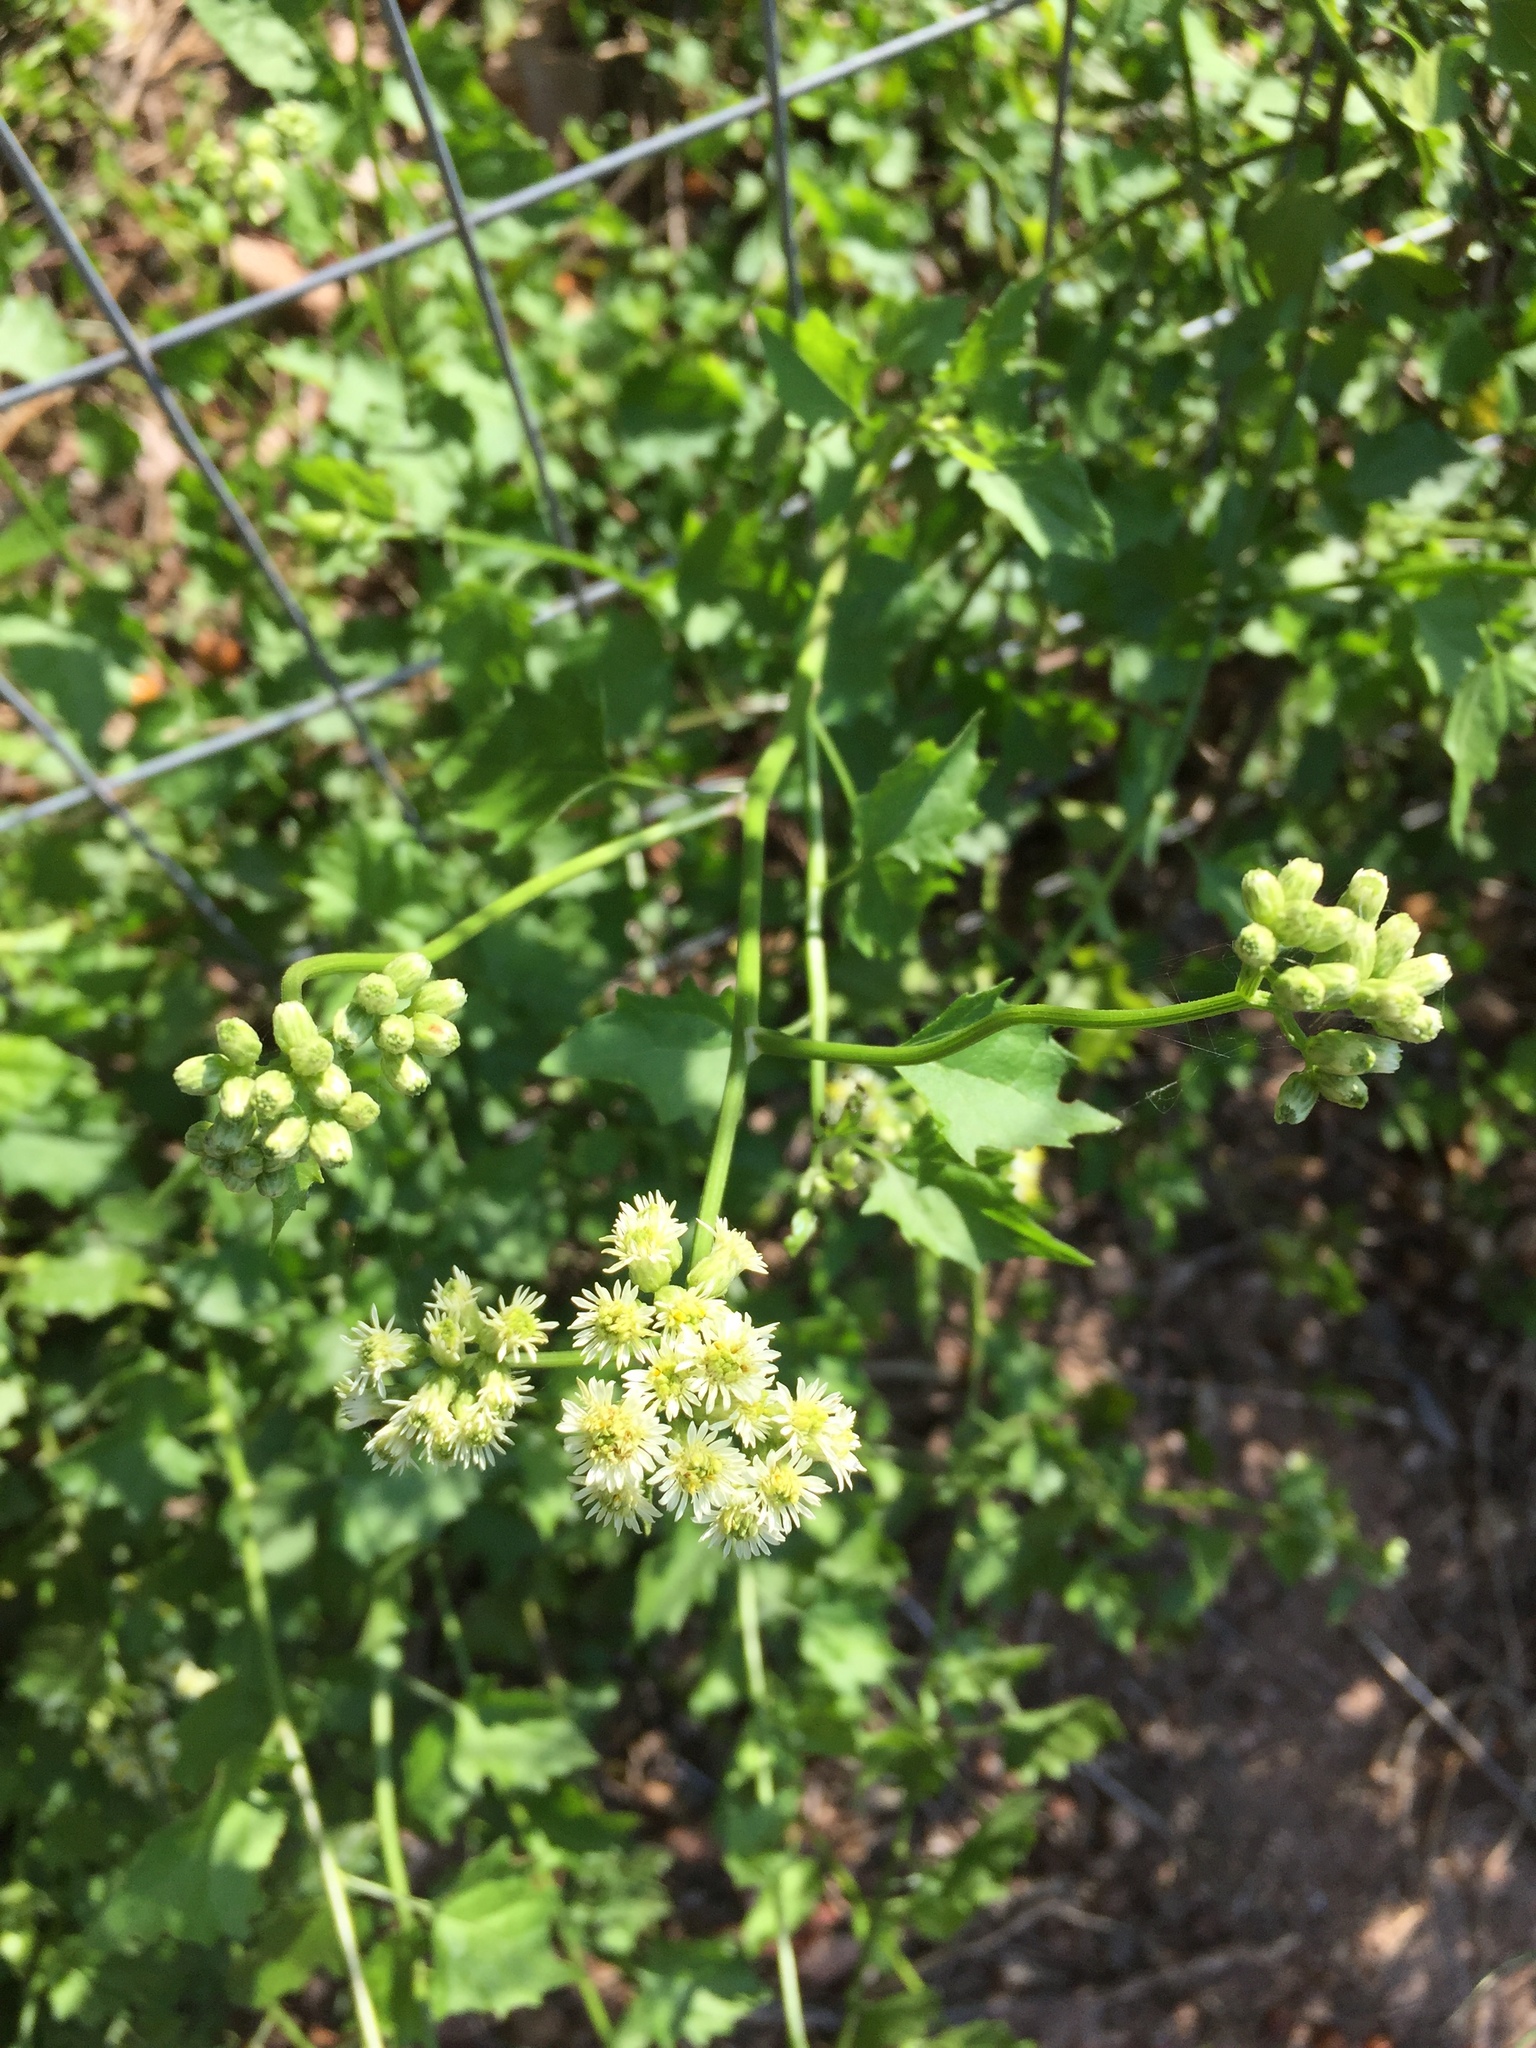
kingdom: Plantae
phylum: Tracheophyta
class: Magnoliopsida
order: Asterales
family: Asteraceae
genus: Microglossa
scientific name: Microglossa mespilifolia
